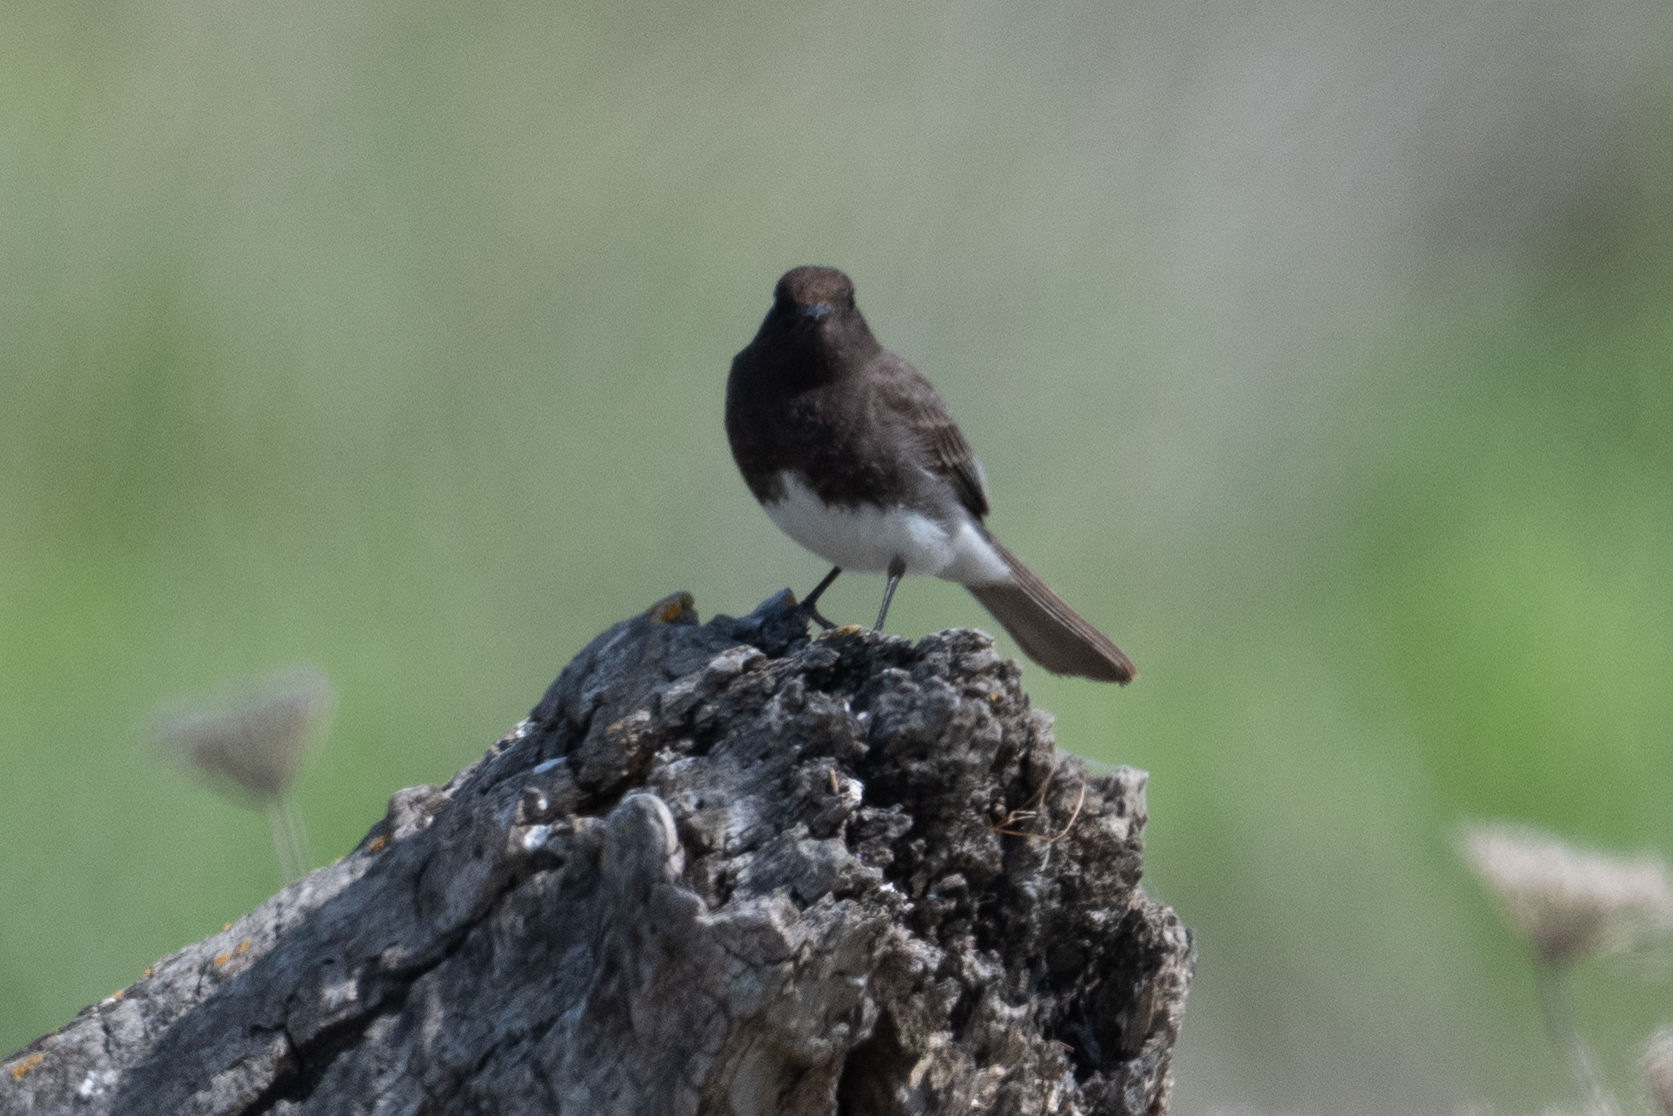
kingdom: Animalia
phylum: Chordata
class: Aves
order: Passeriformes
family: Tyrannidae
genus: Sayornis
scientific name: Sayornis nigricans
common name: Black phoebe
